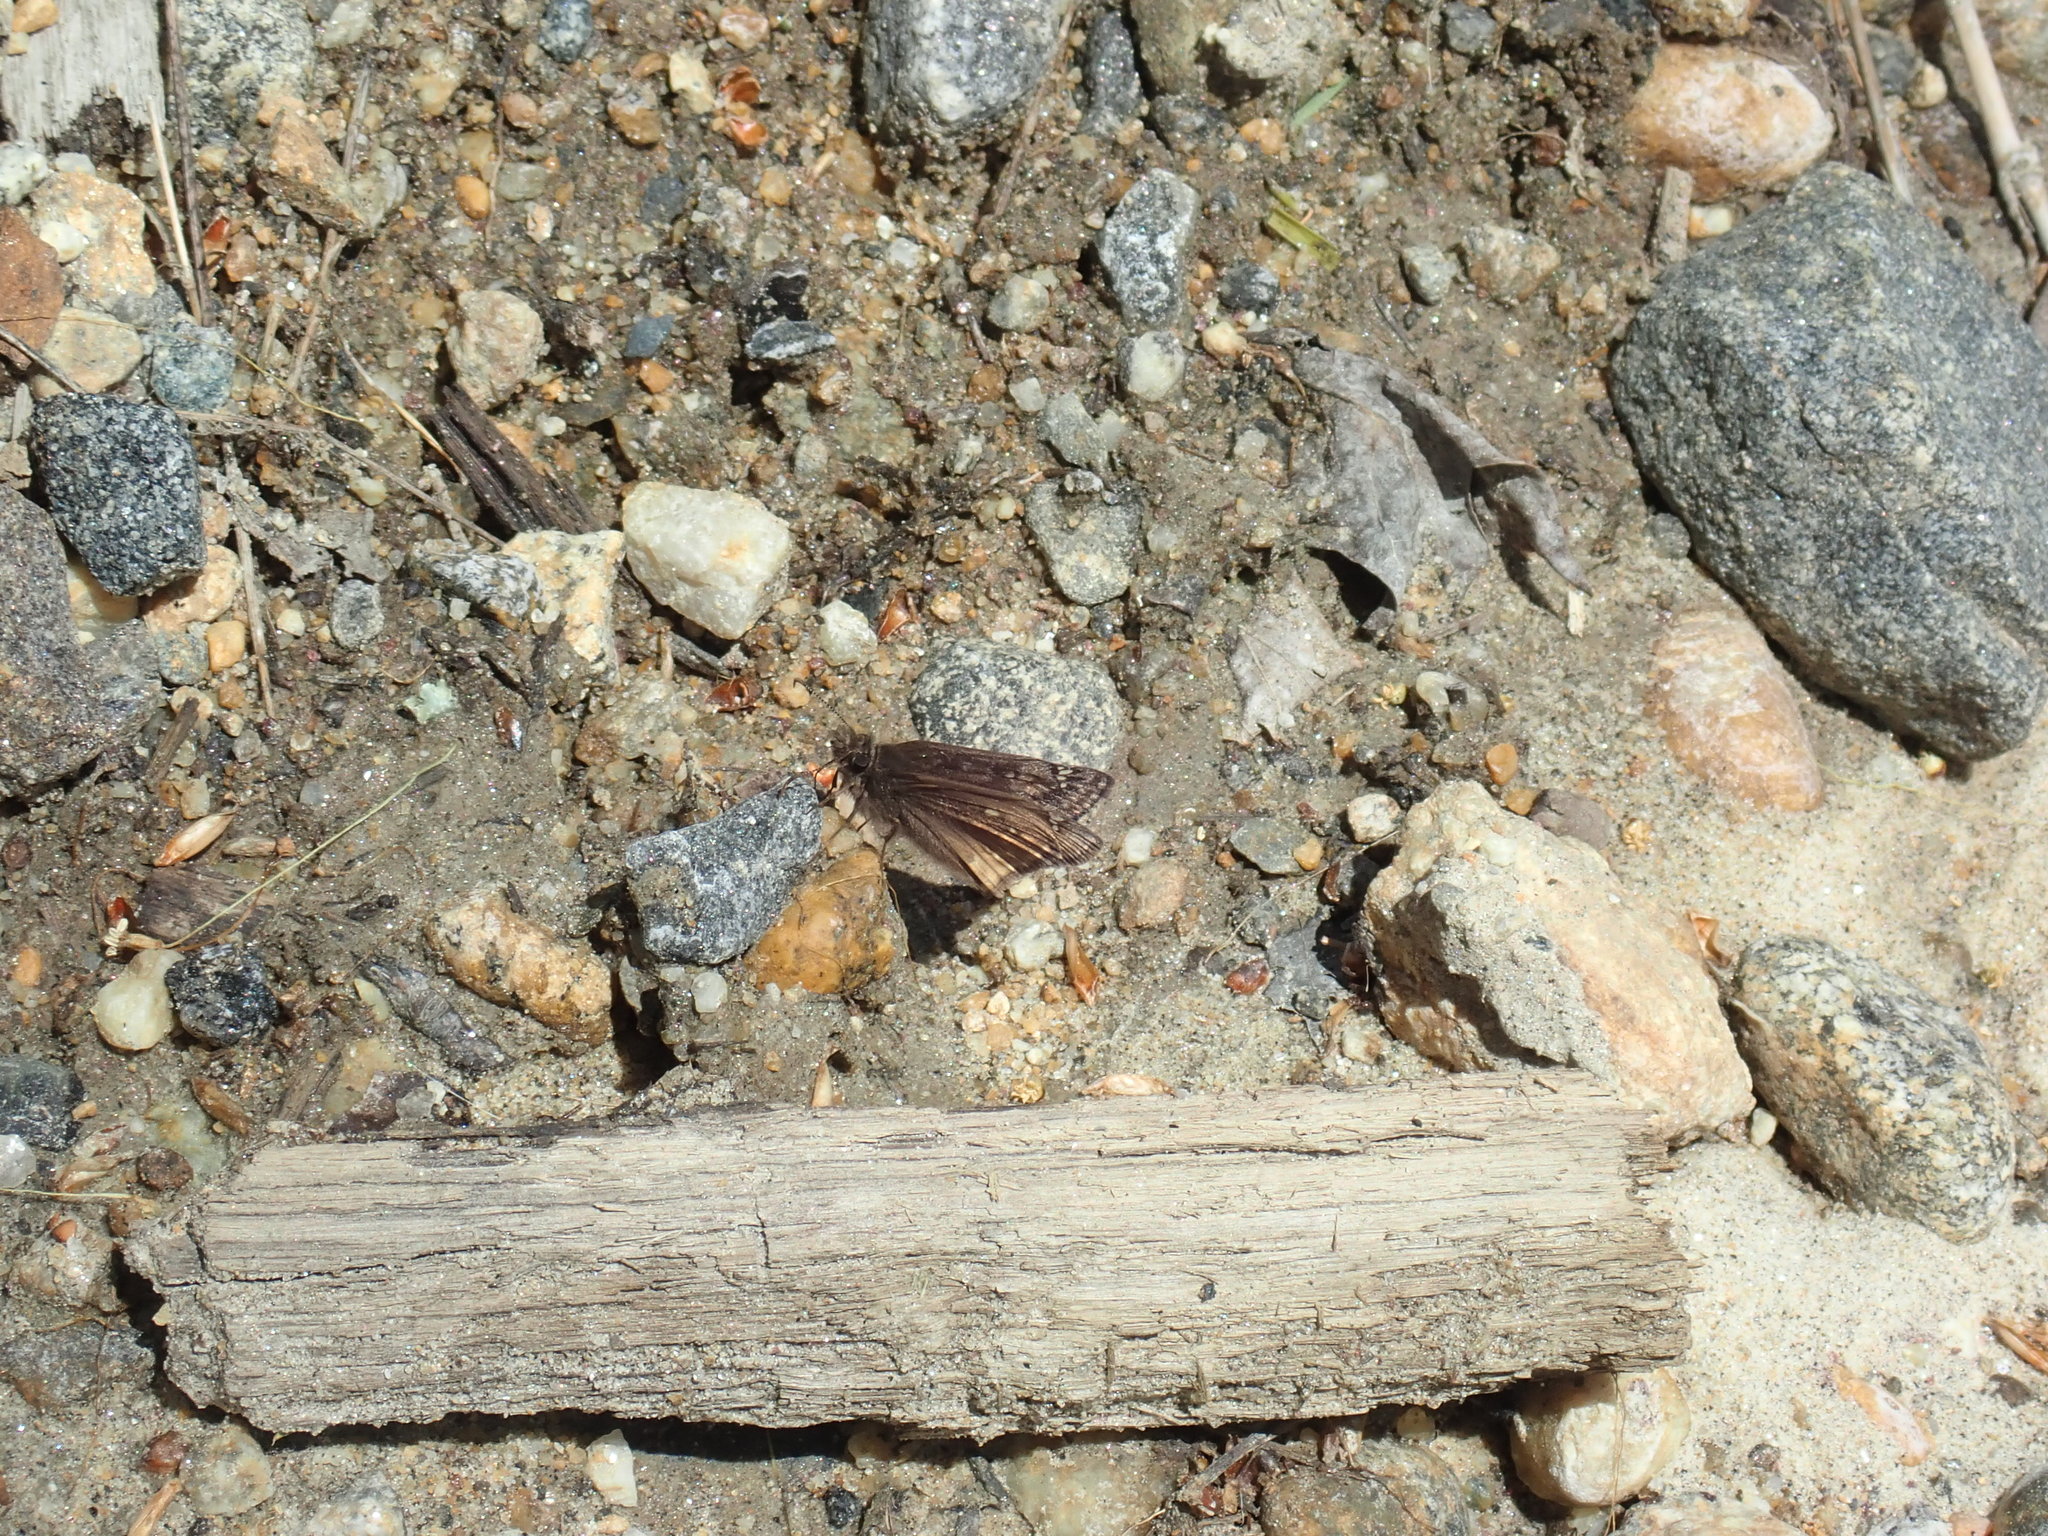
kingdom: Animalia
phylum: Arthropoda
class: Insecta
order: Lepidoptera
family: Hesperiidae
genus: Erynnis
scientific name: Erynnis juvenalis
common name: Juvenal's duskywing
